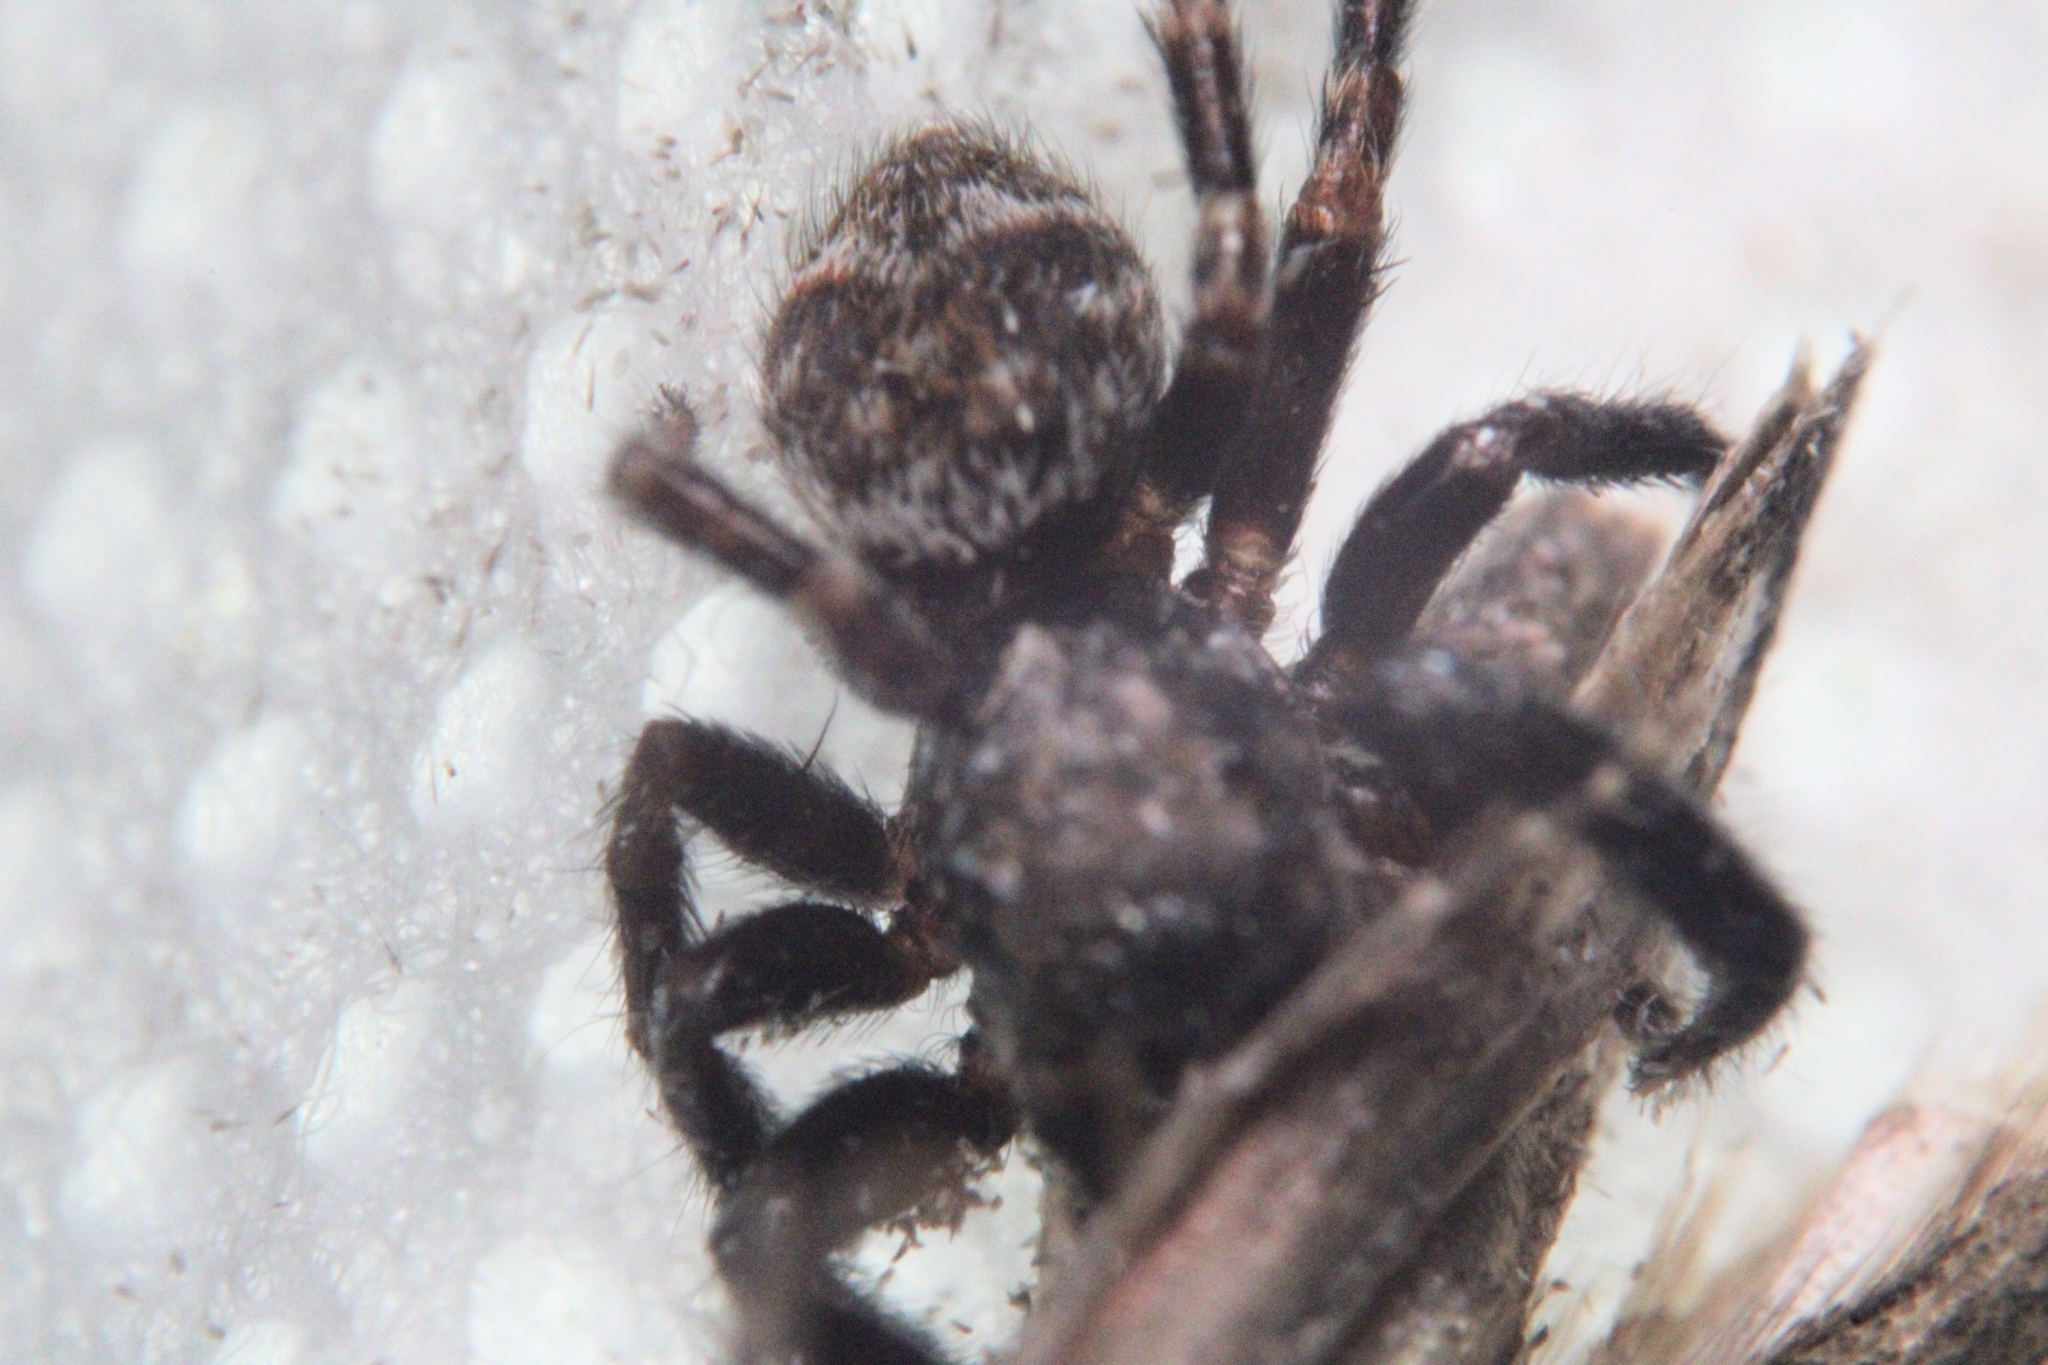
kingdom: Animalia
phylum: Arthropoda
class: Arachnida
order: Araneae
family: Salticidae
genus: Pseudeuophrys
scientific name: Pseudeuophrys erratica
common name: Jumping spider
